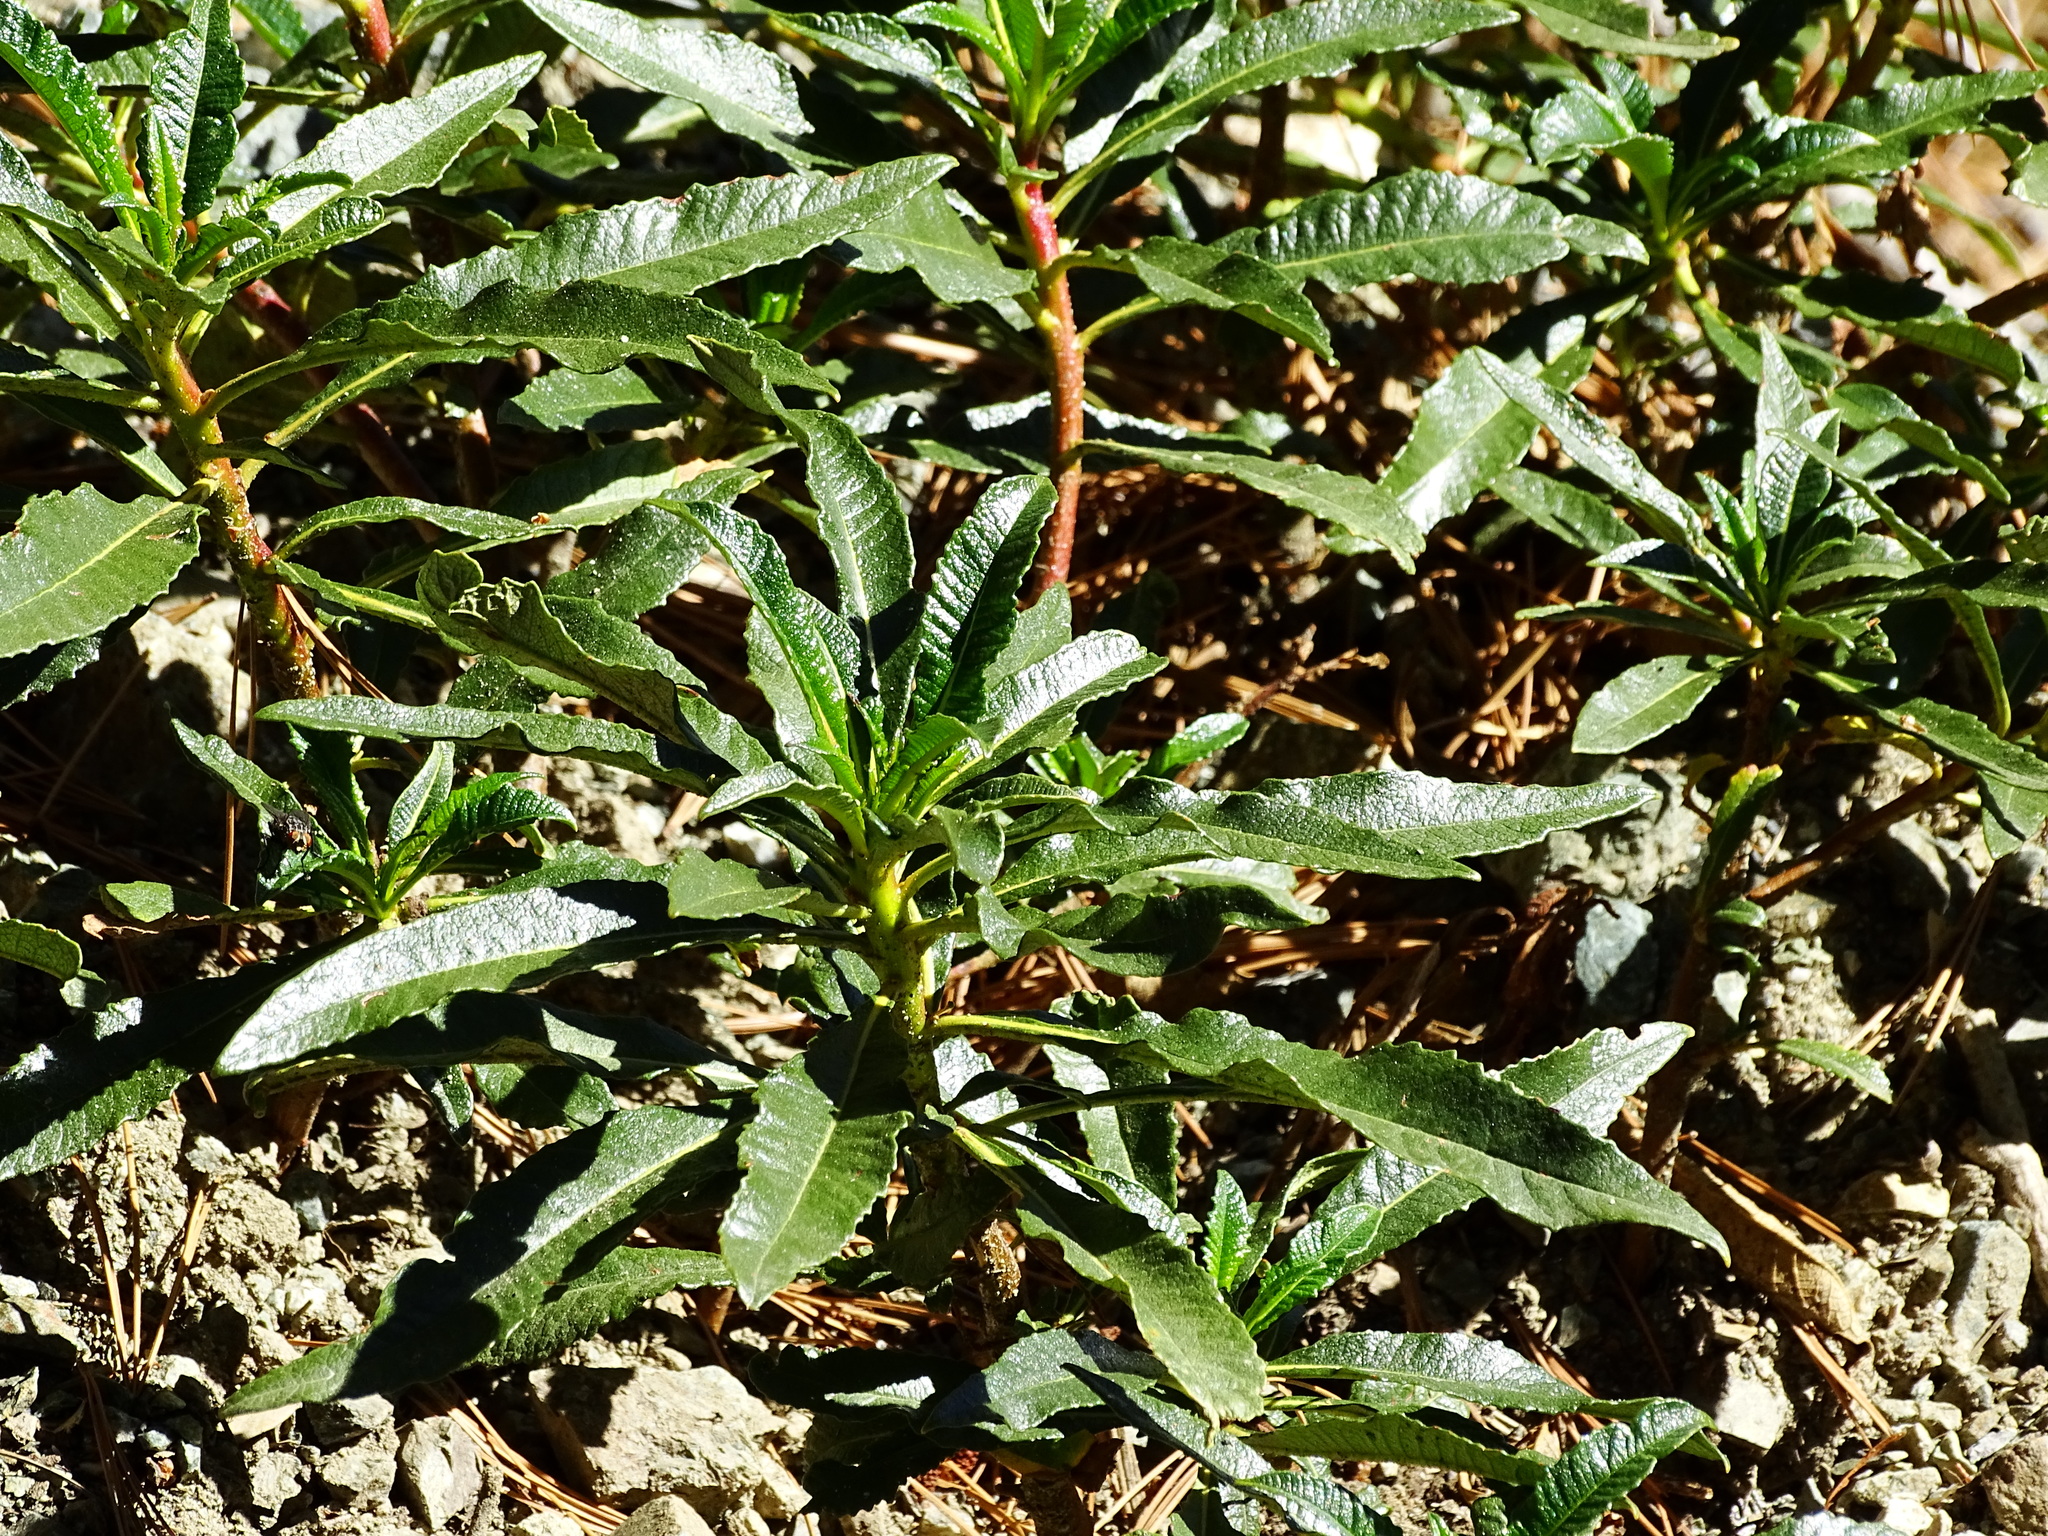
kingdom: Plantae
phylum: Tracheophyta
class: Magnoliopsida
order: Boraginales
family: Namaceae
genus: Eriodictyon
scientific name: Eriodictyon trichocalyx
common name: Hairy yerba-santa
